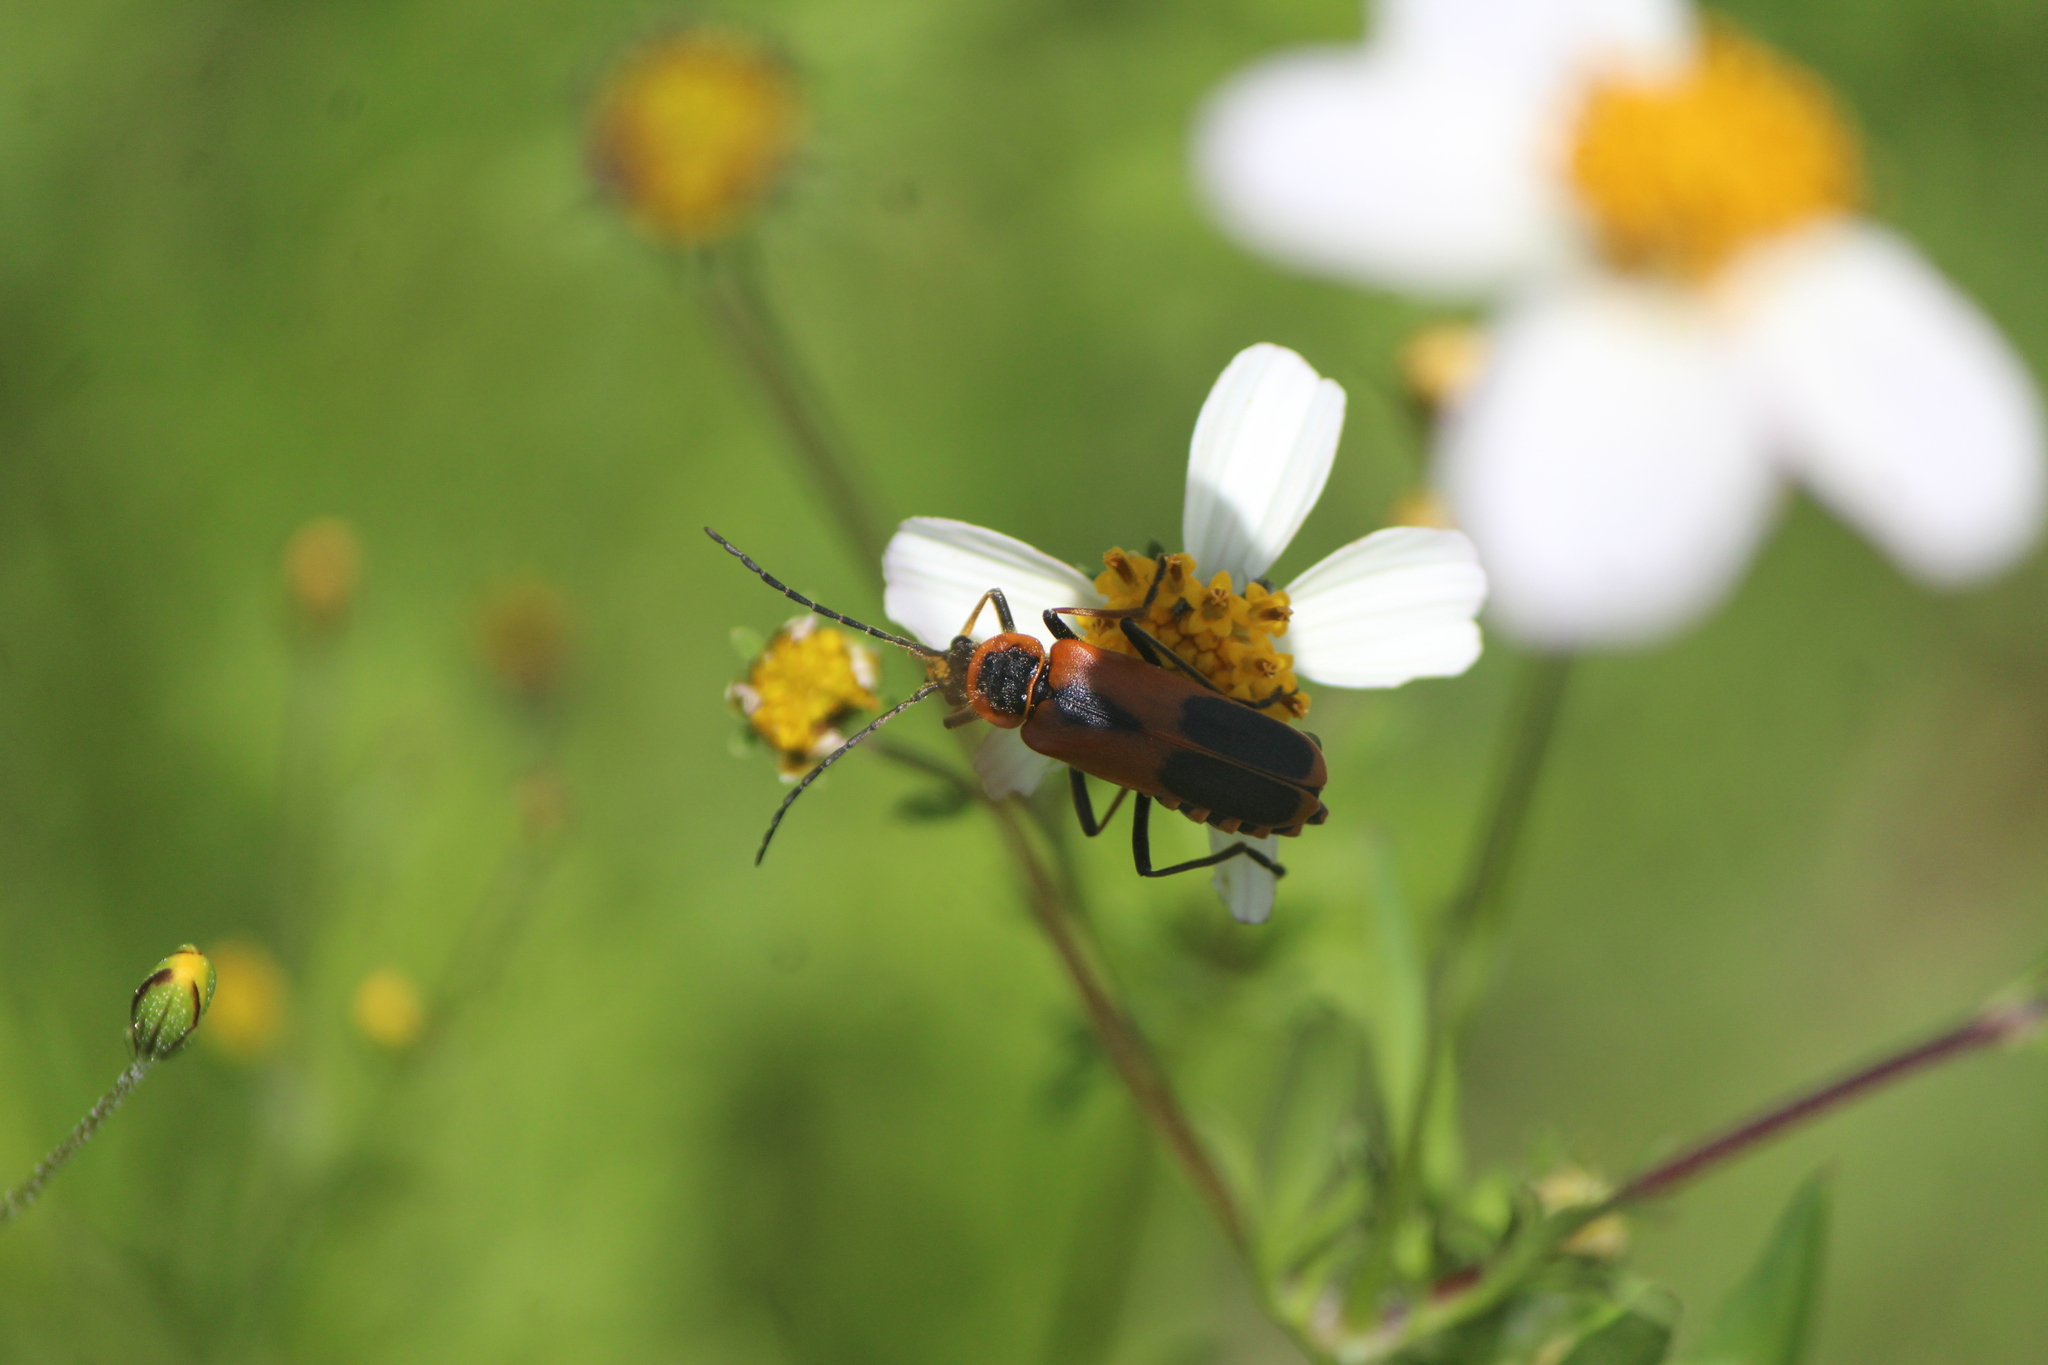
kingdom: Animalia
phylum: Arthropoda
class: Insecta
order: Coleoptera
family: Cantharidae
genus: Chauliognathus
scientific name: Chauliognathus limbicollis
